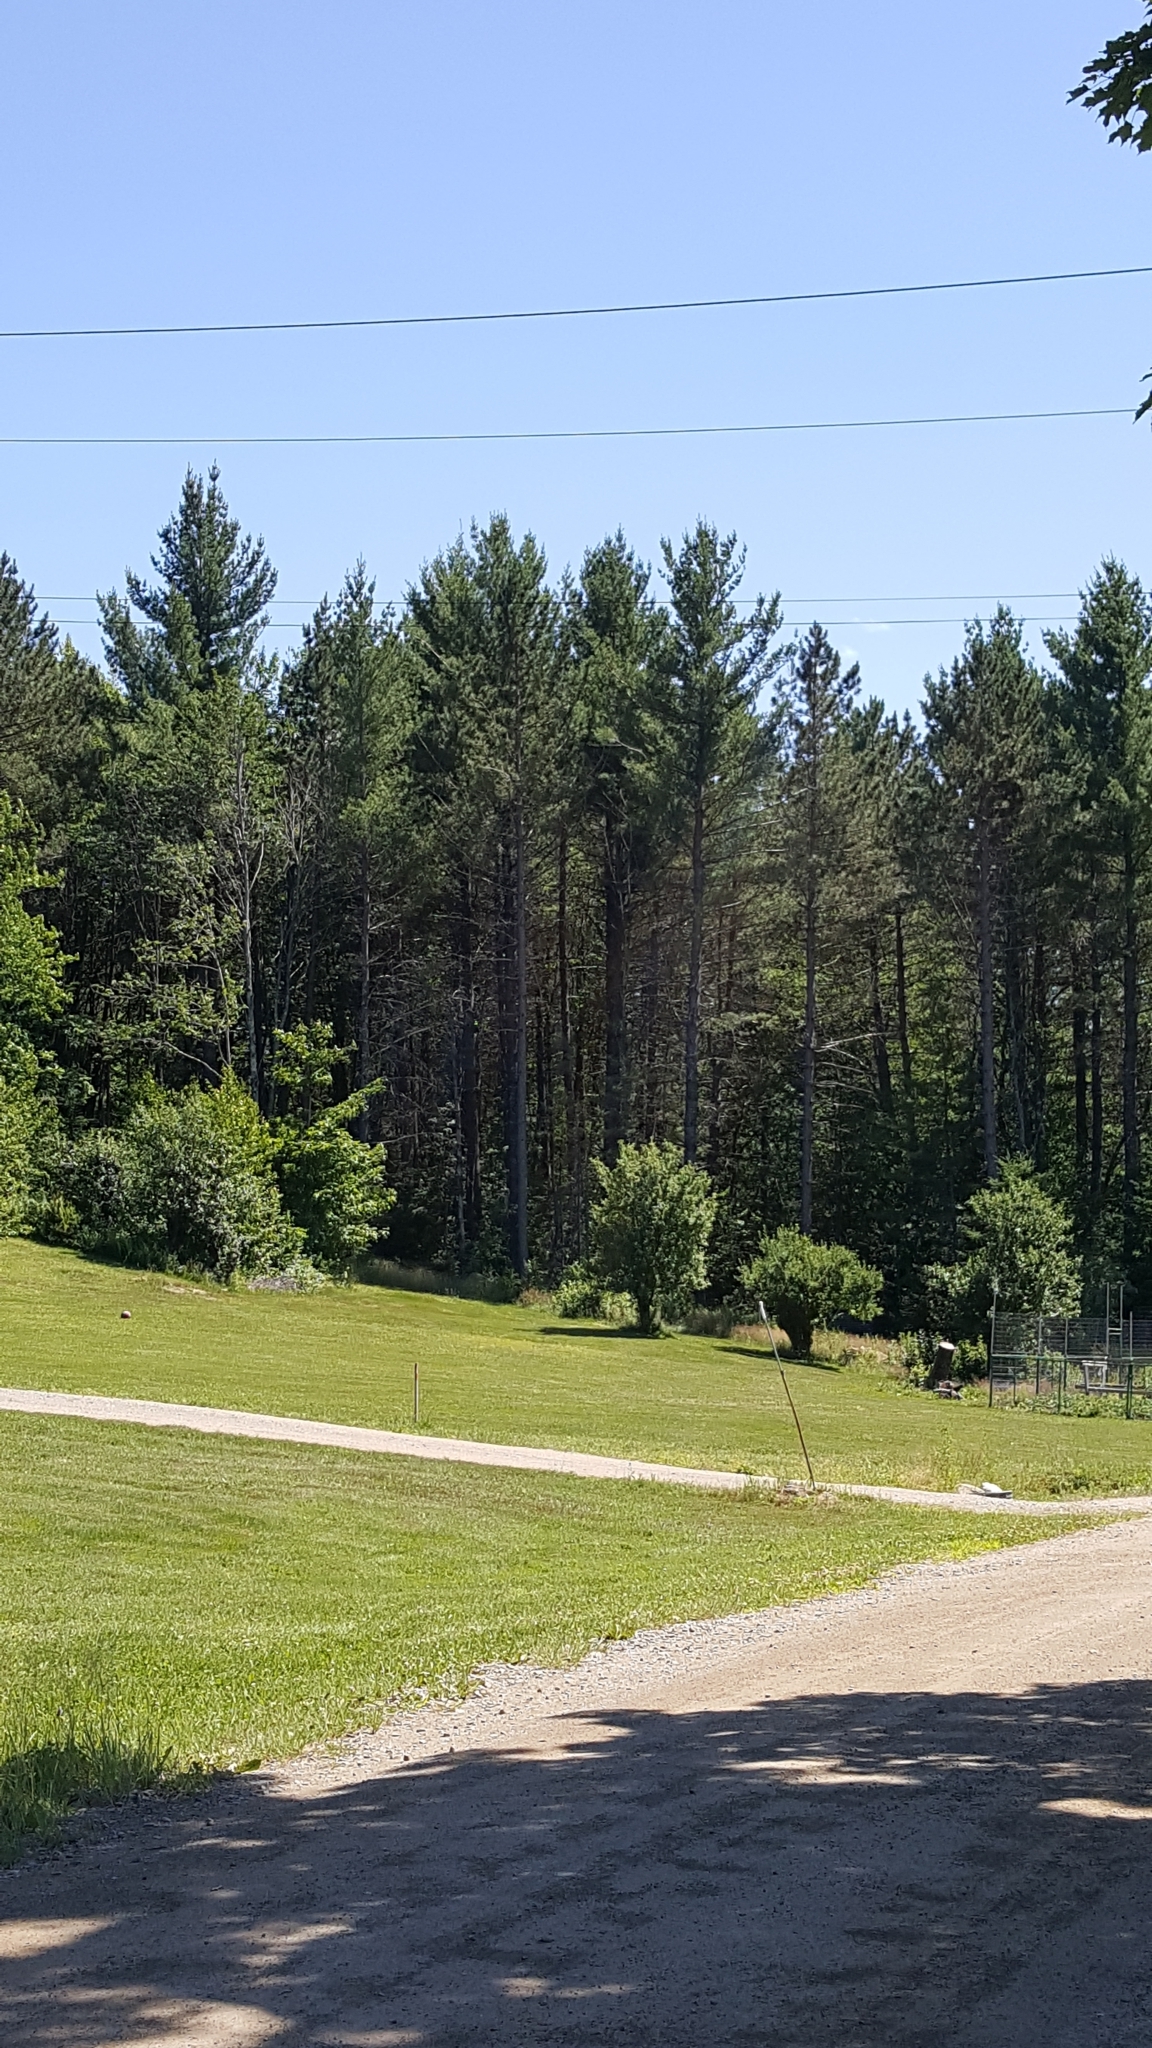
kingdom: Plantae
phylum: Tracheophyta
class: Pinopsida
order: Pinales
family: Pinaceae
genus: Pinus
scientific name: Pinus strobus
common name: Weymouth pine
